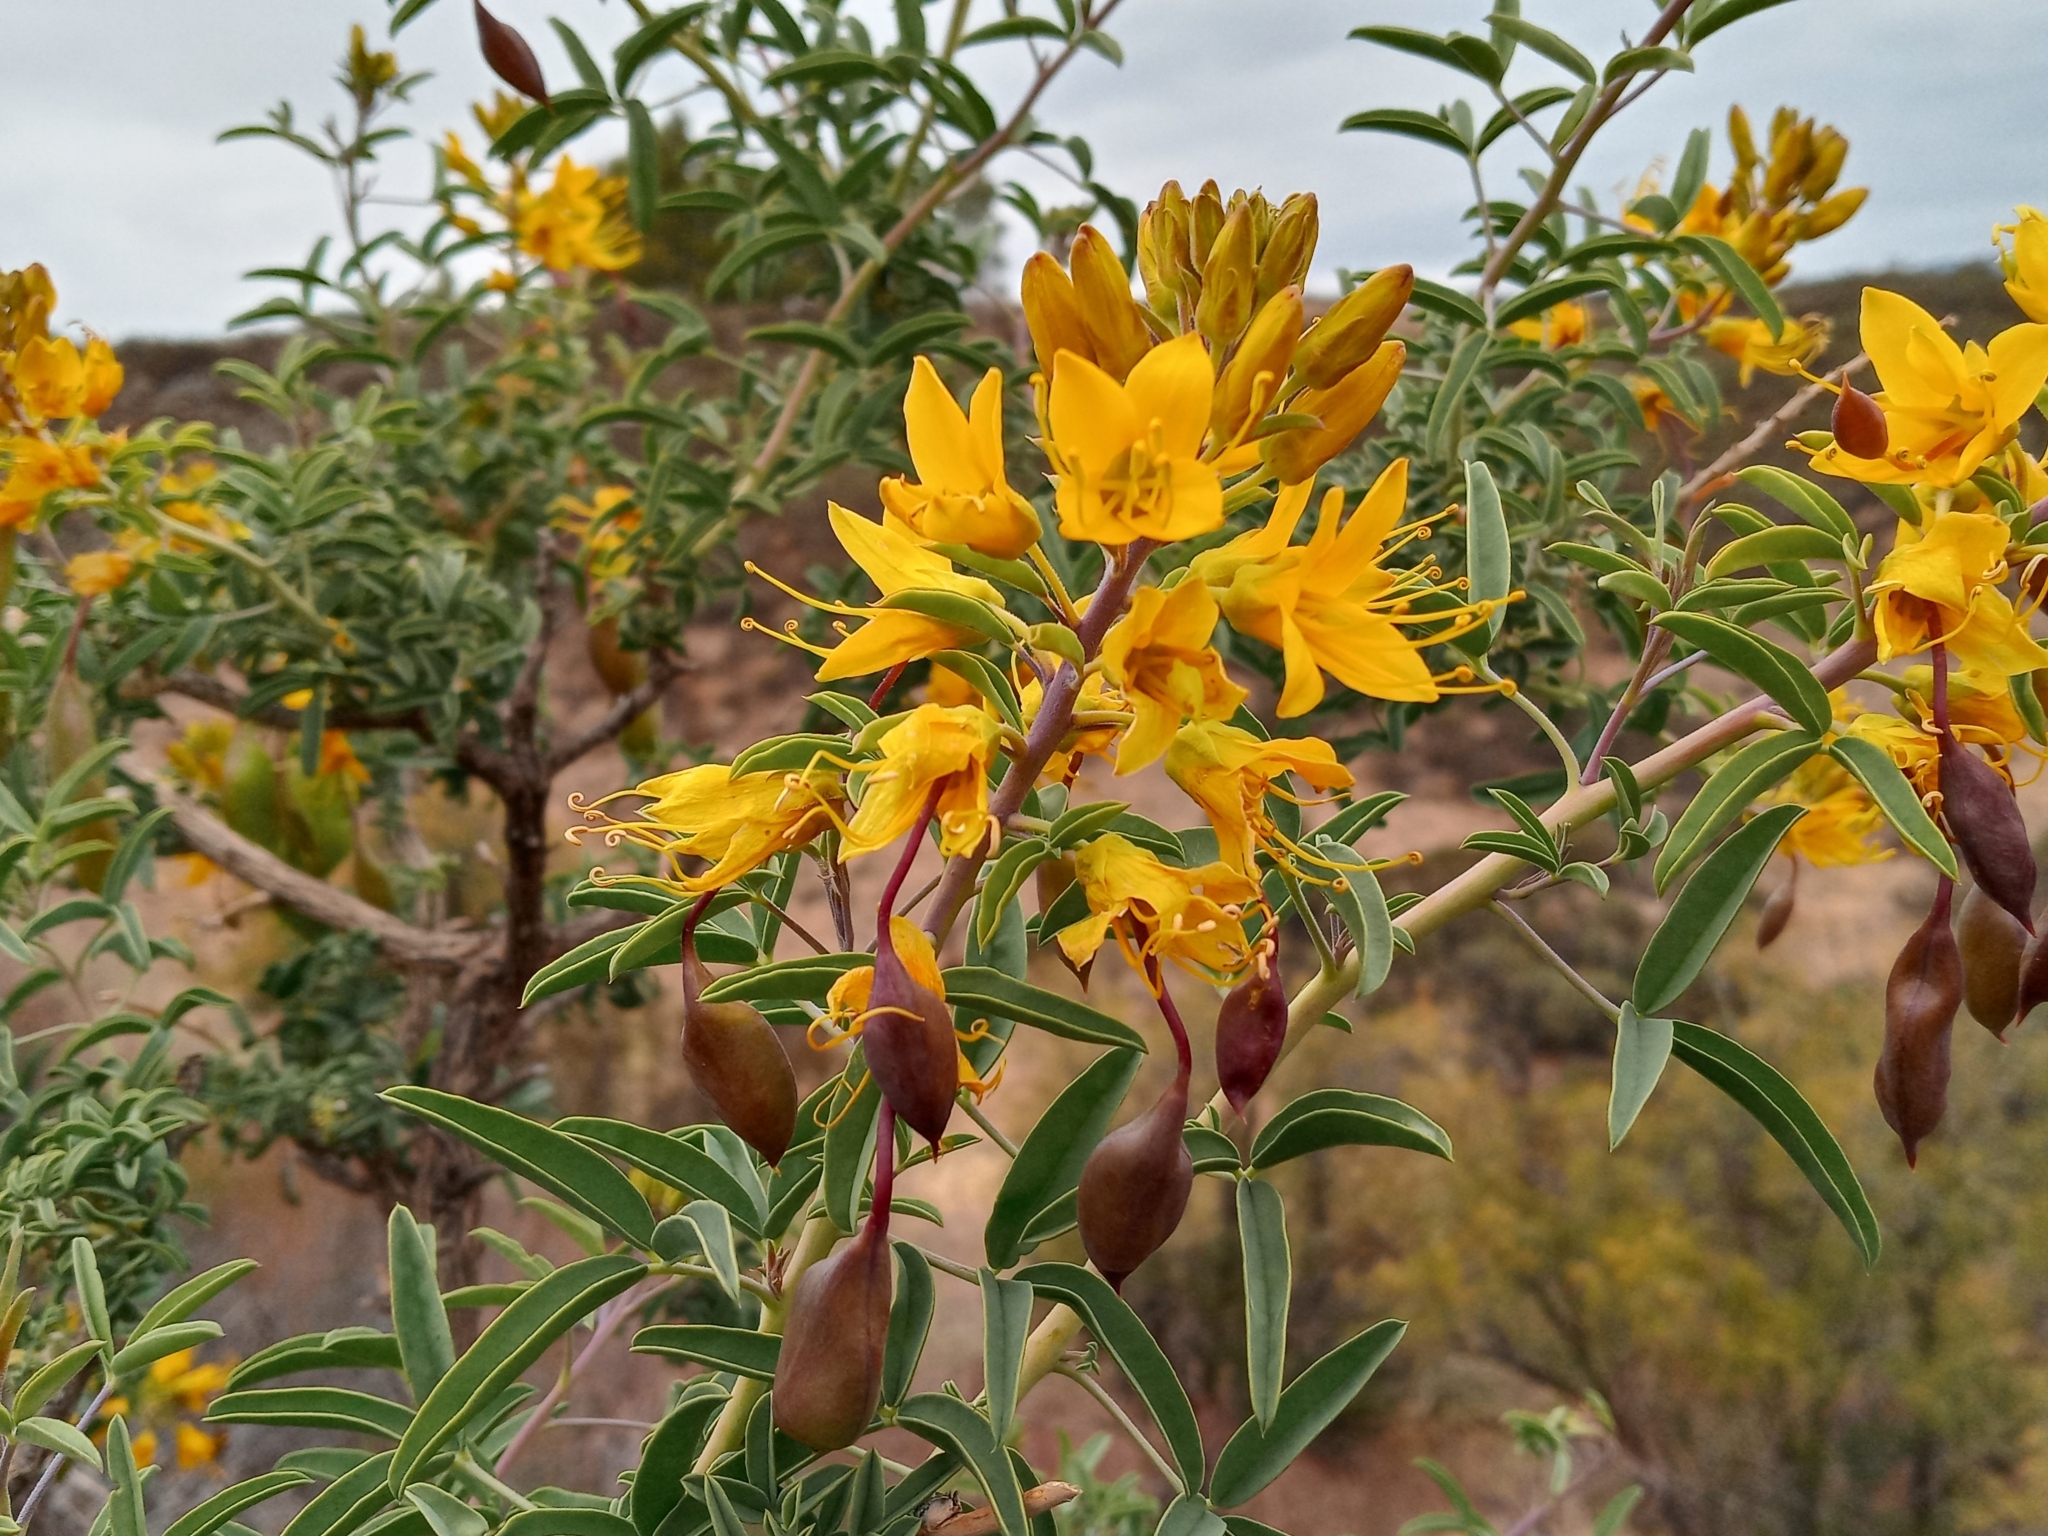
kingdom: Plantae
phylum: Tracheophyta
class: Magnoliopsida
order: Brassicales
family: Cleomaceae
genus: Cleomella
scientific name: Cleomella arborea
